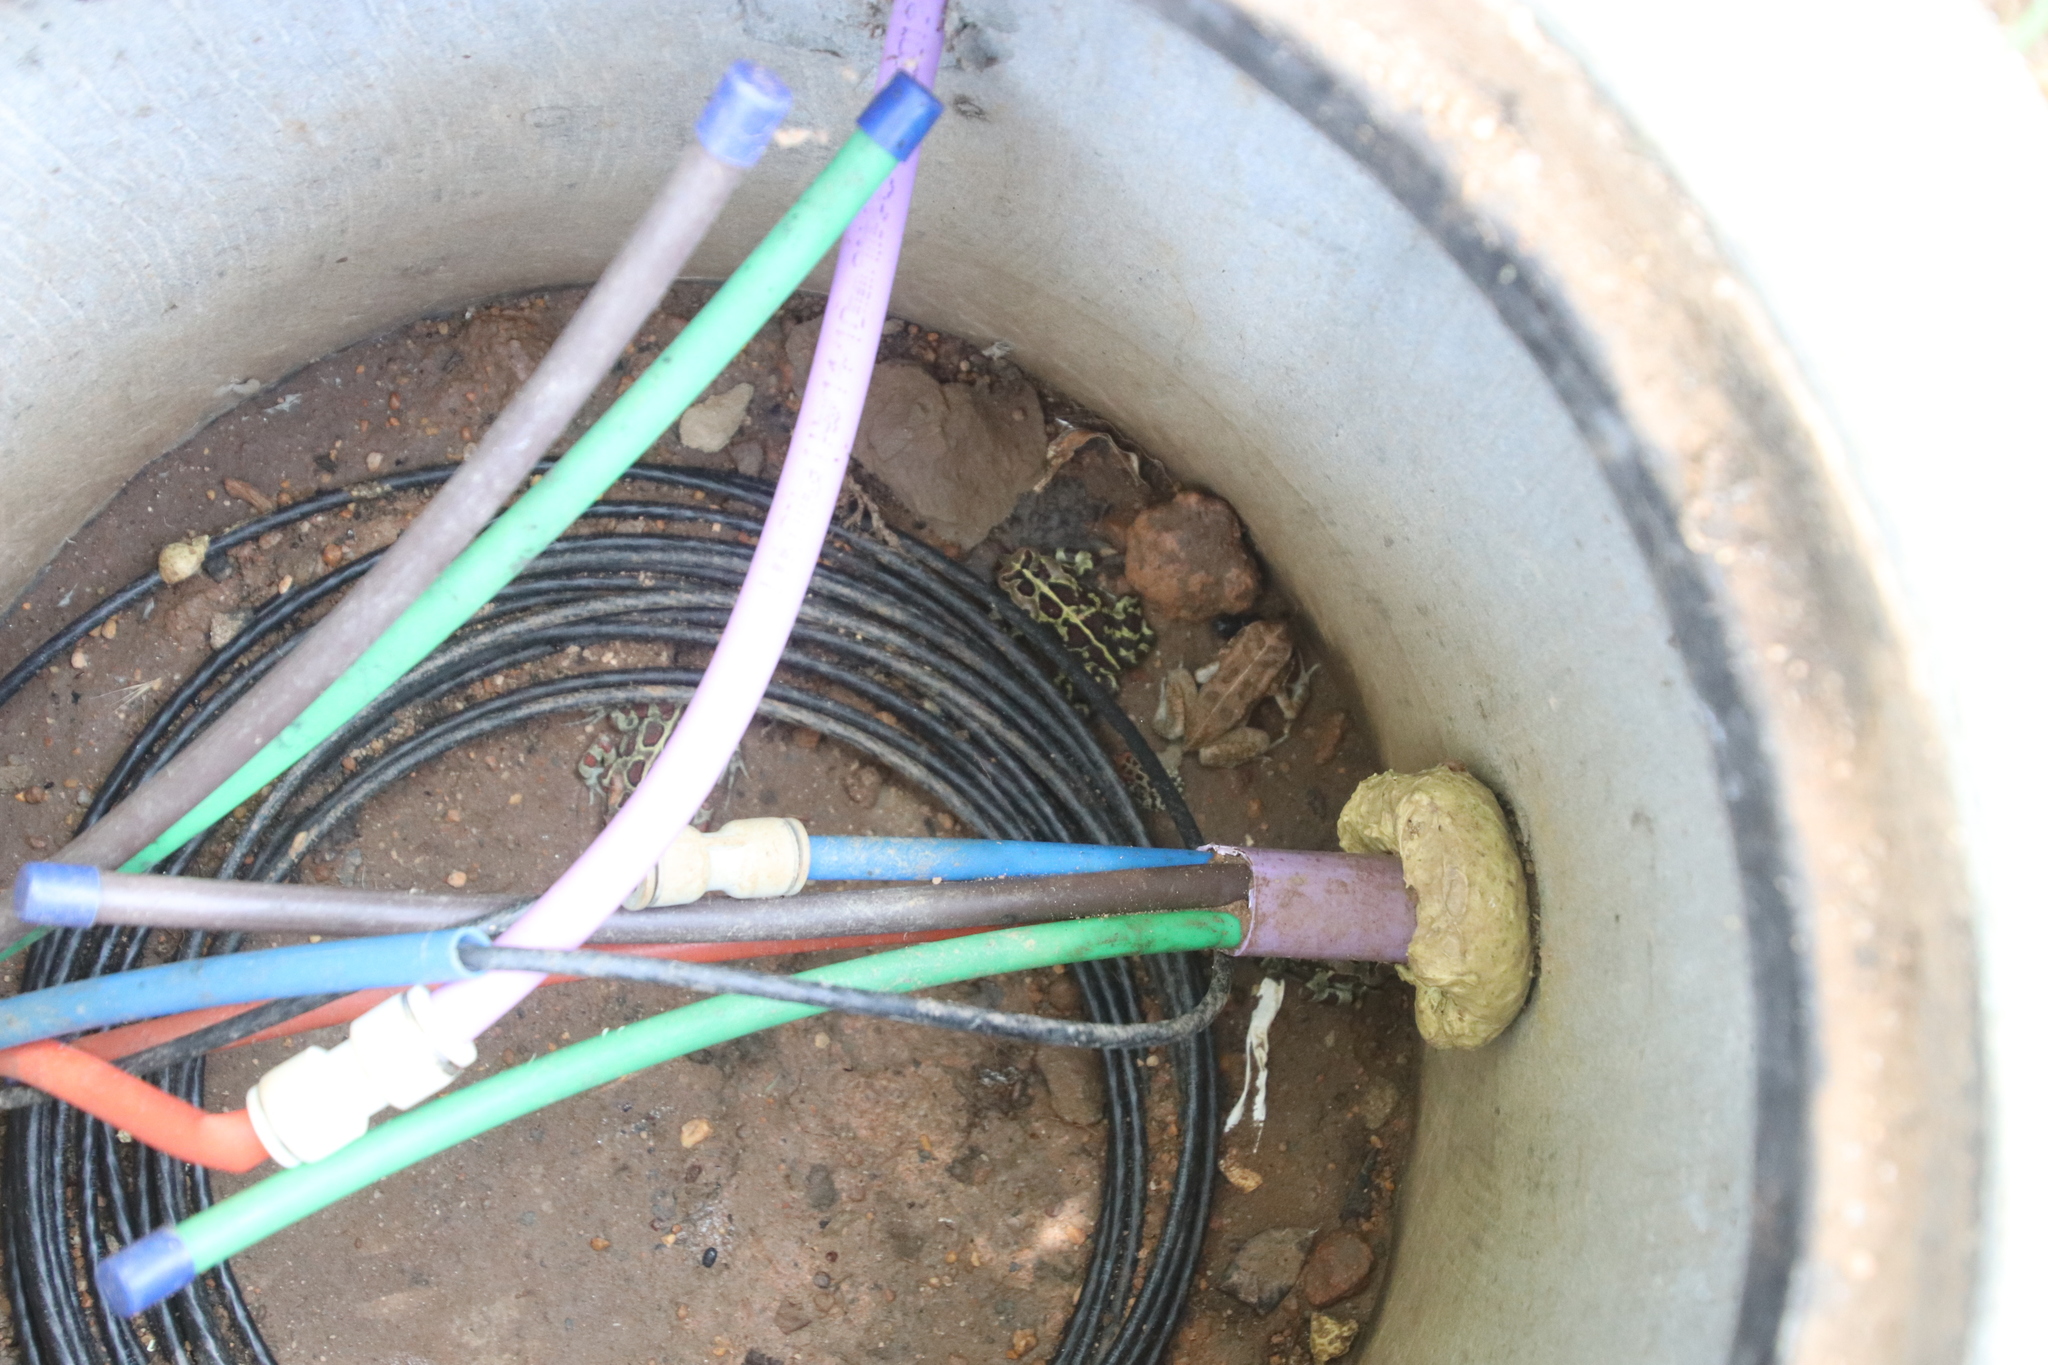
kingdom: Animalia
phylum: Chordata
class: Amphibia
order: Anura
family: Bufonidae
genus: Sclerophrys
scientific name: Sclerophrys pantherina
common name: Panther toad
